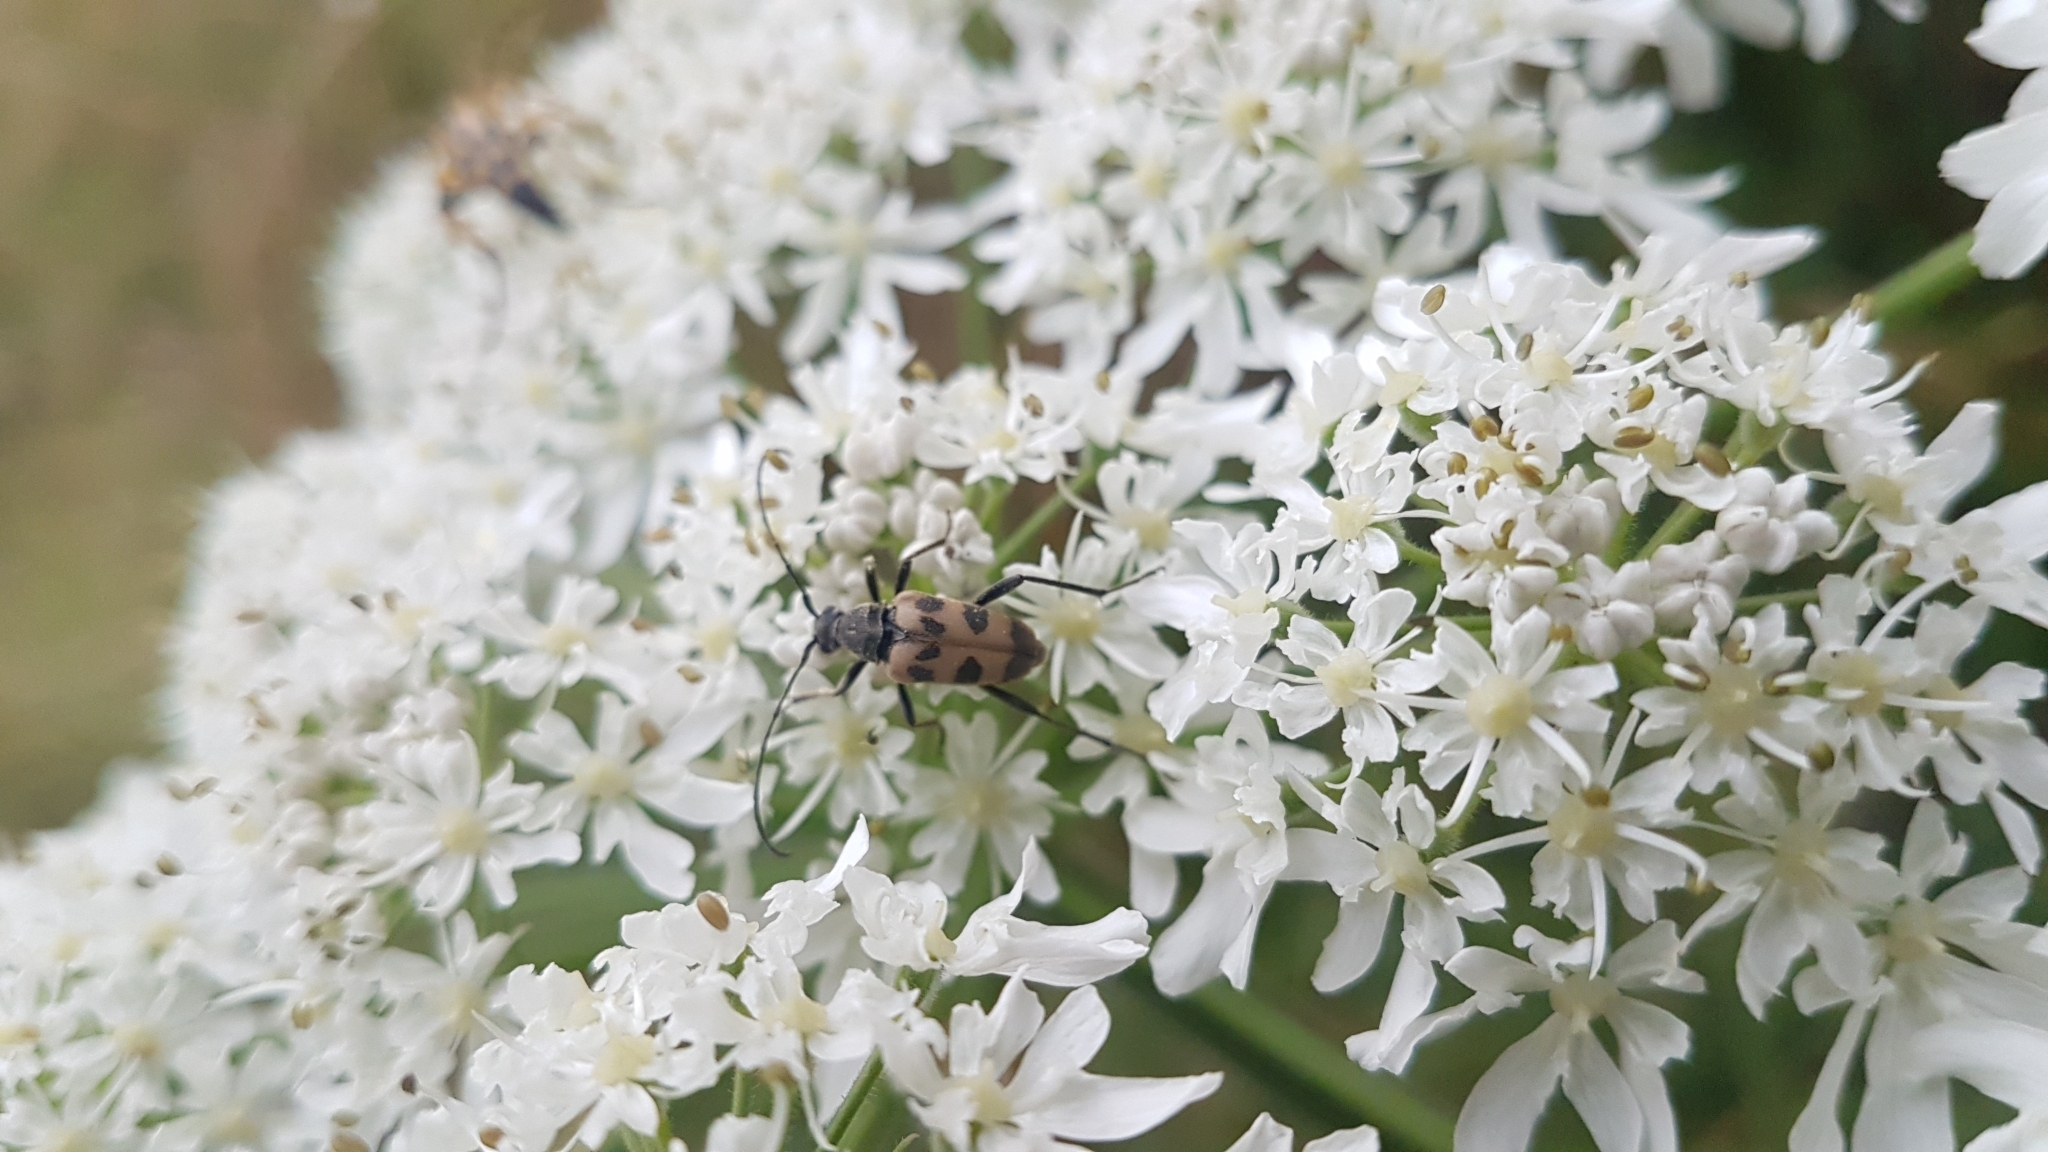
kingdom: Animalia
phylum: Arthropoda
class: Insecta
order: Coleoptera
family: Cerambycidae
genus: Pachytodes
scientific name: Pachytodes cerambyciformis
